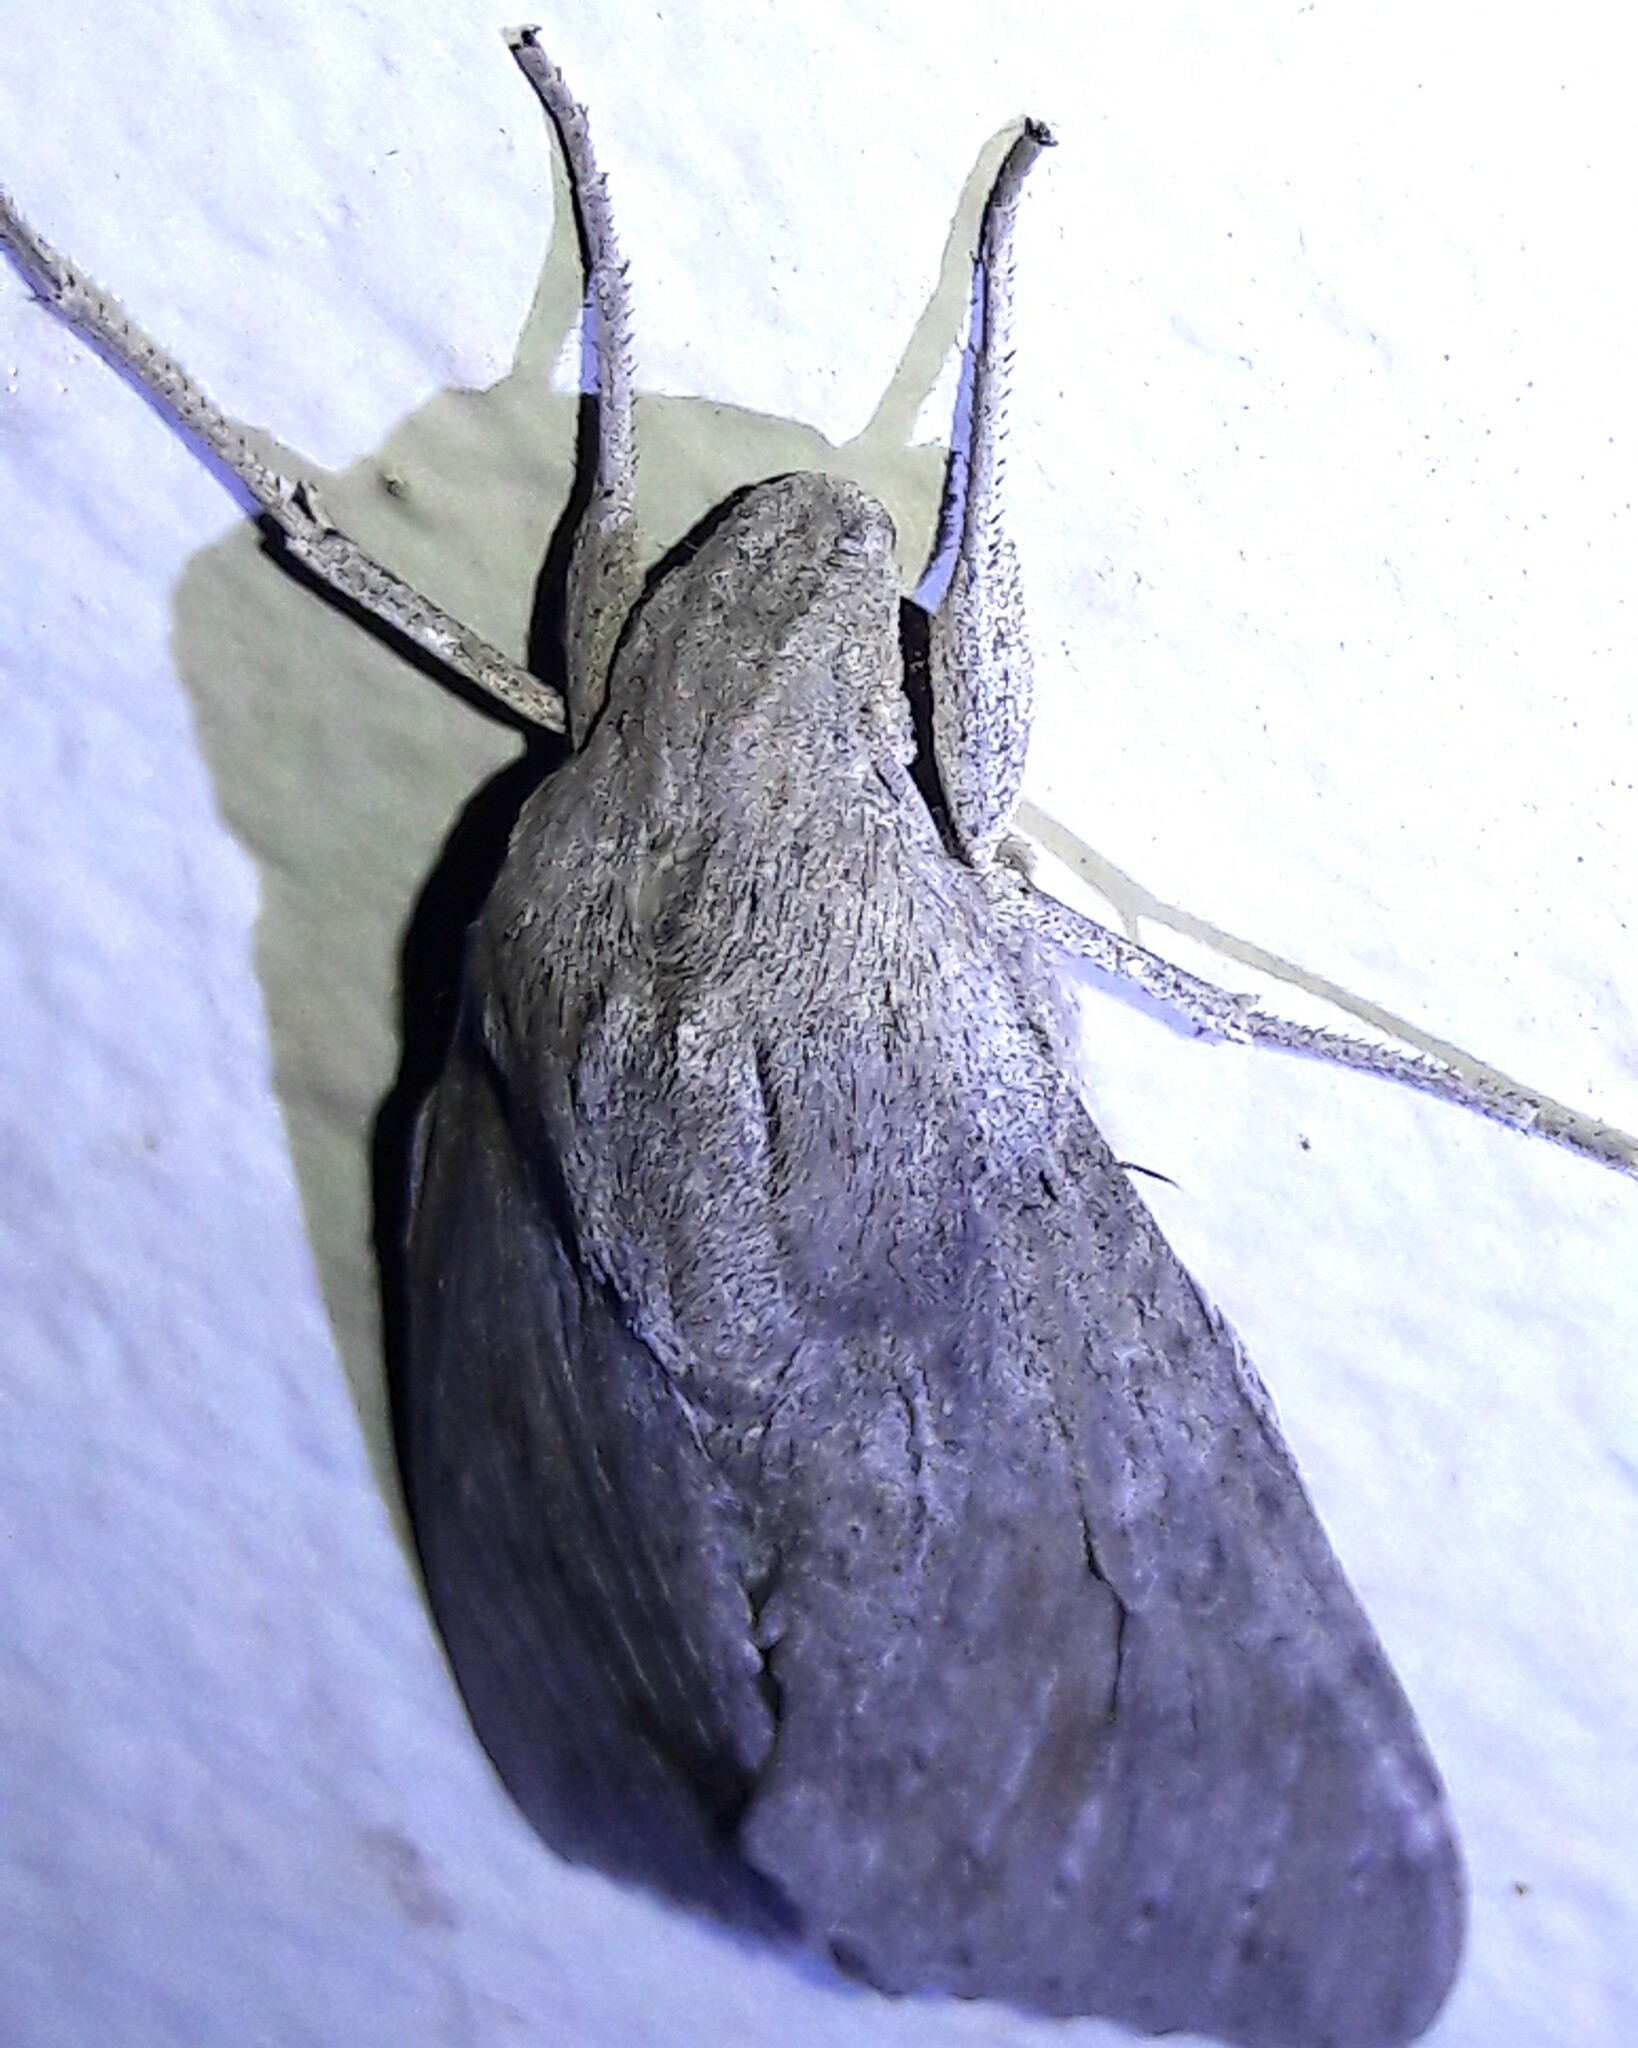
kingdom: Animalia
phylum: Arthropoda
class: Insecta
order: Lepidoptera
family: Sphingidae
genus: Erinnyis
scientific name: Erinnyis ello
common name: Ello sphinx
